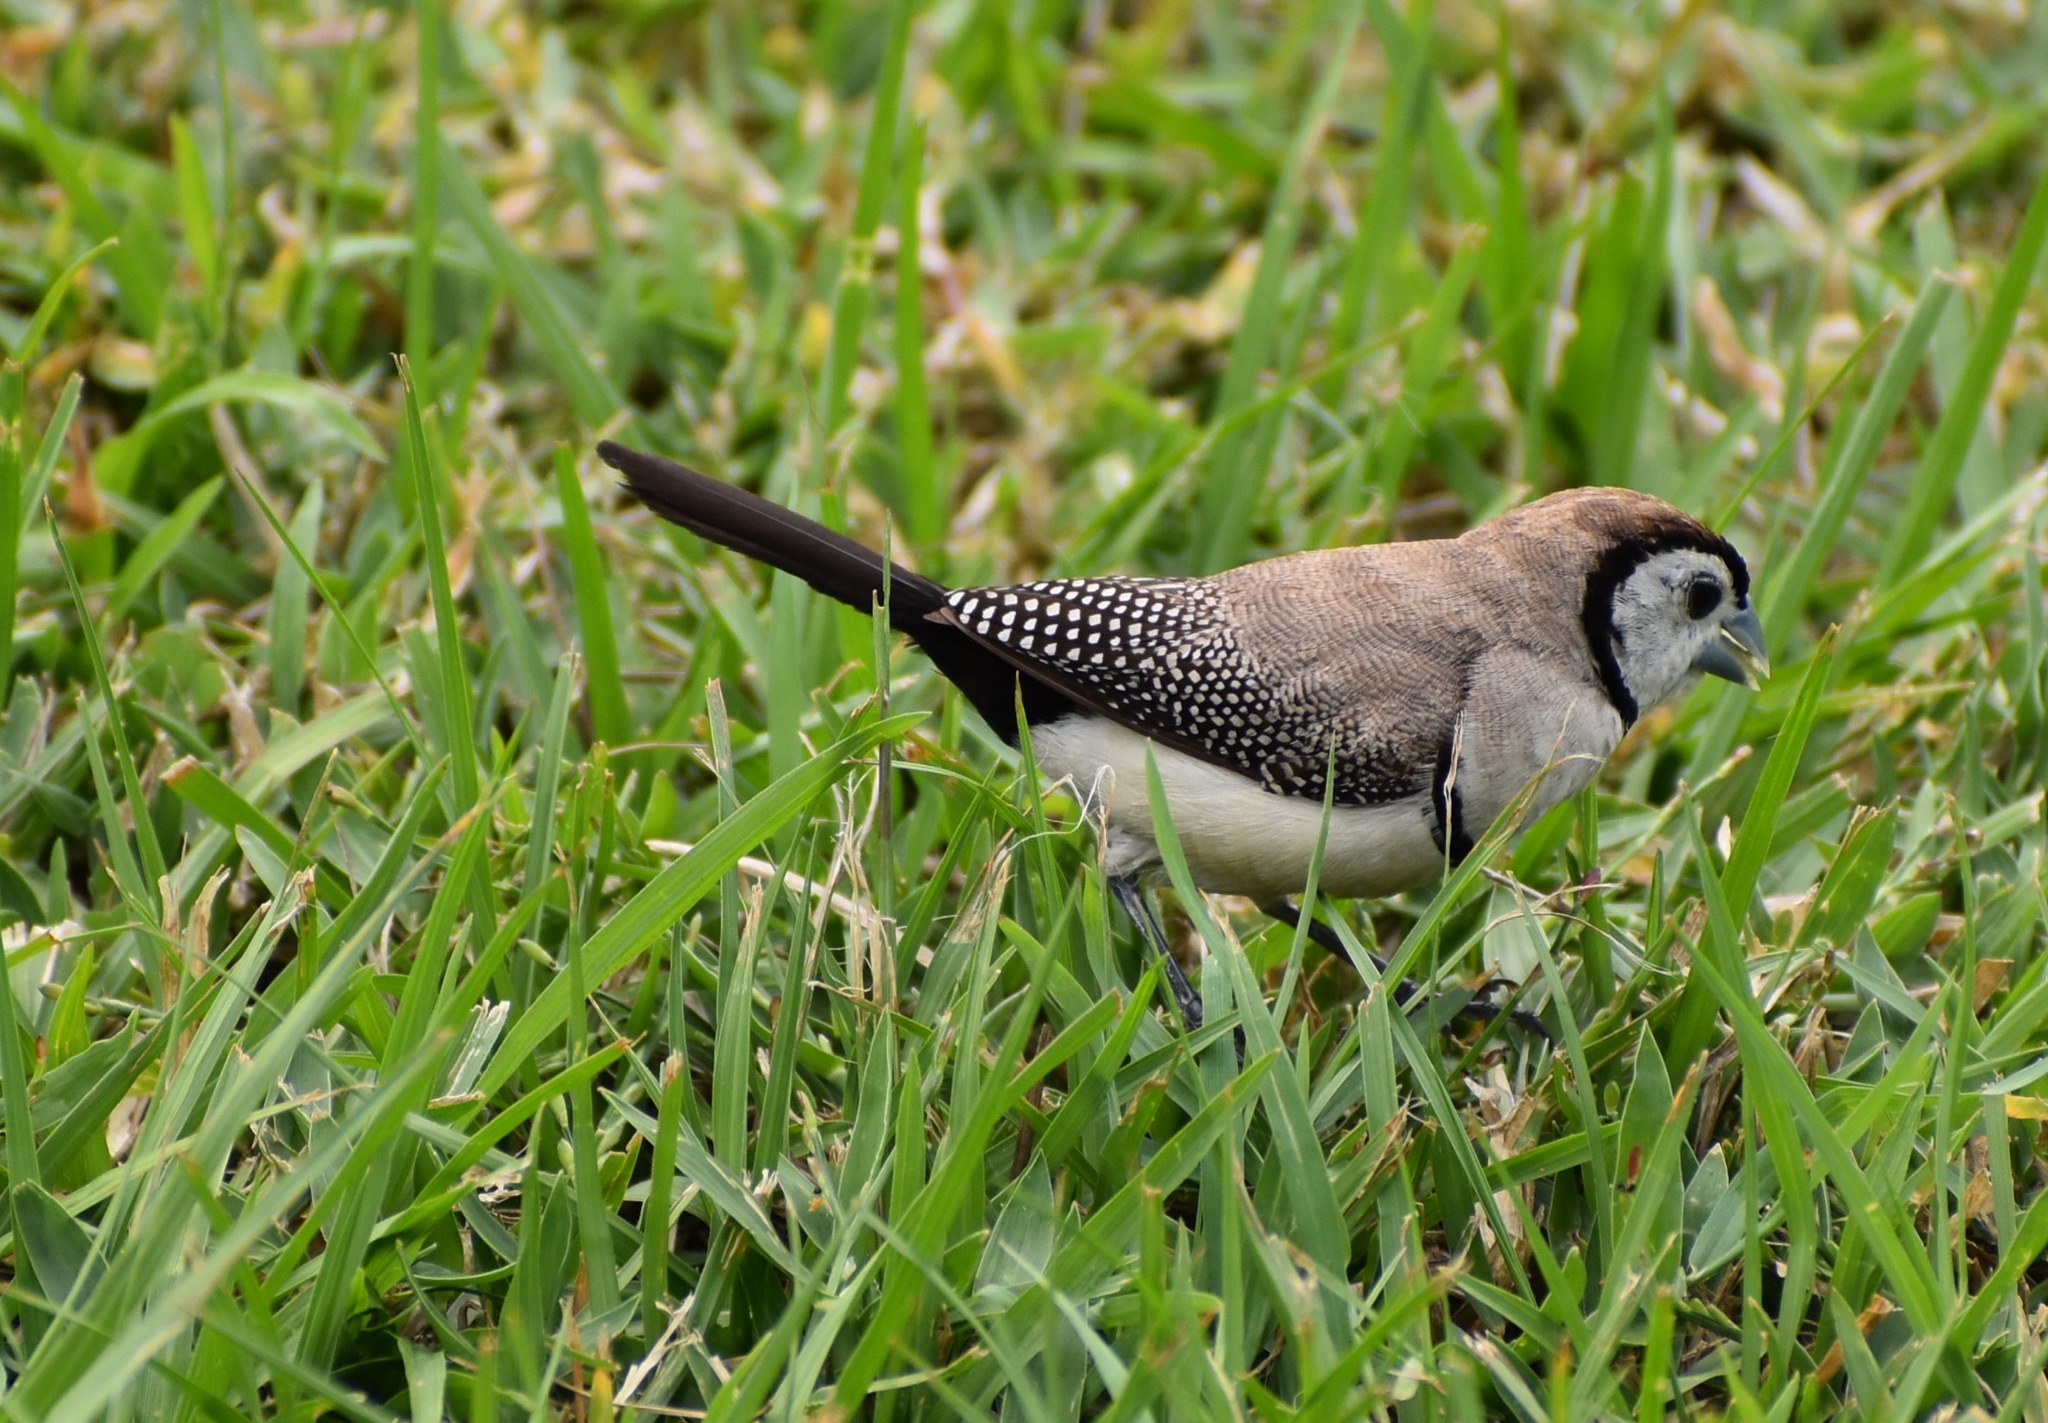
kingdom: Animalia
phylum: Chordata
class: Aves
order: Passeriformes
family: Estrildidae
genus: Taeniopygia
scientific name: Taeniopygia bichenovii
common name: Double-barred finch
